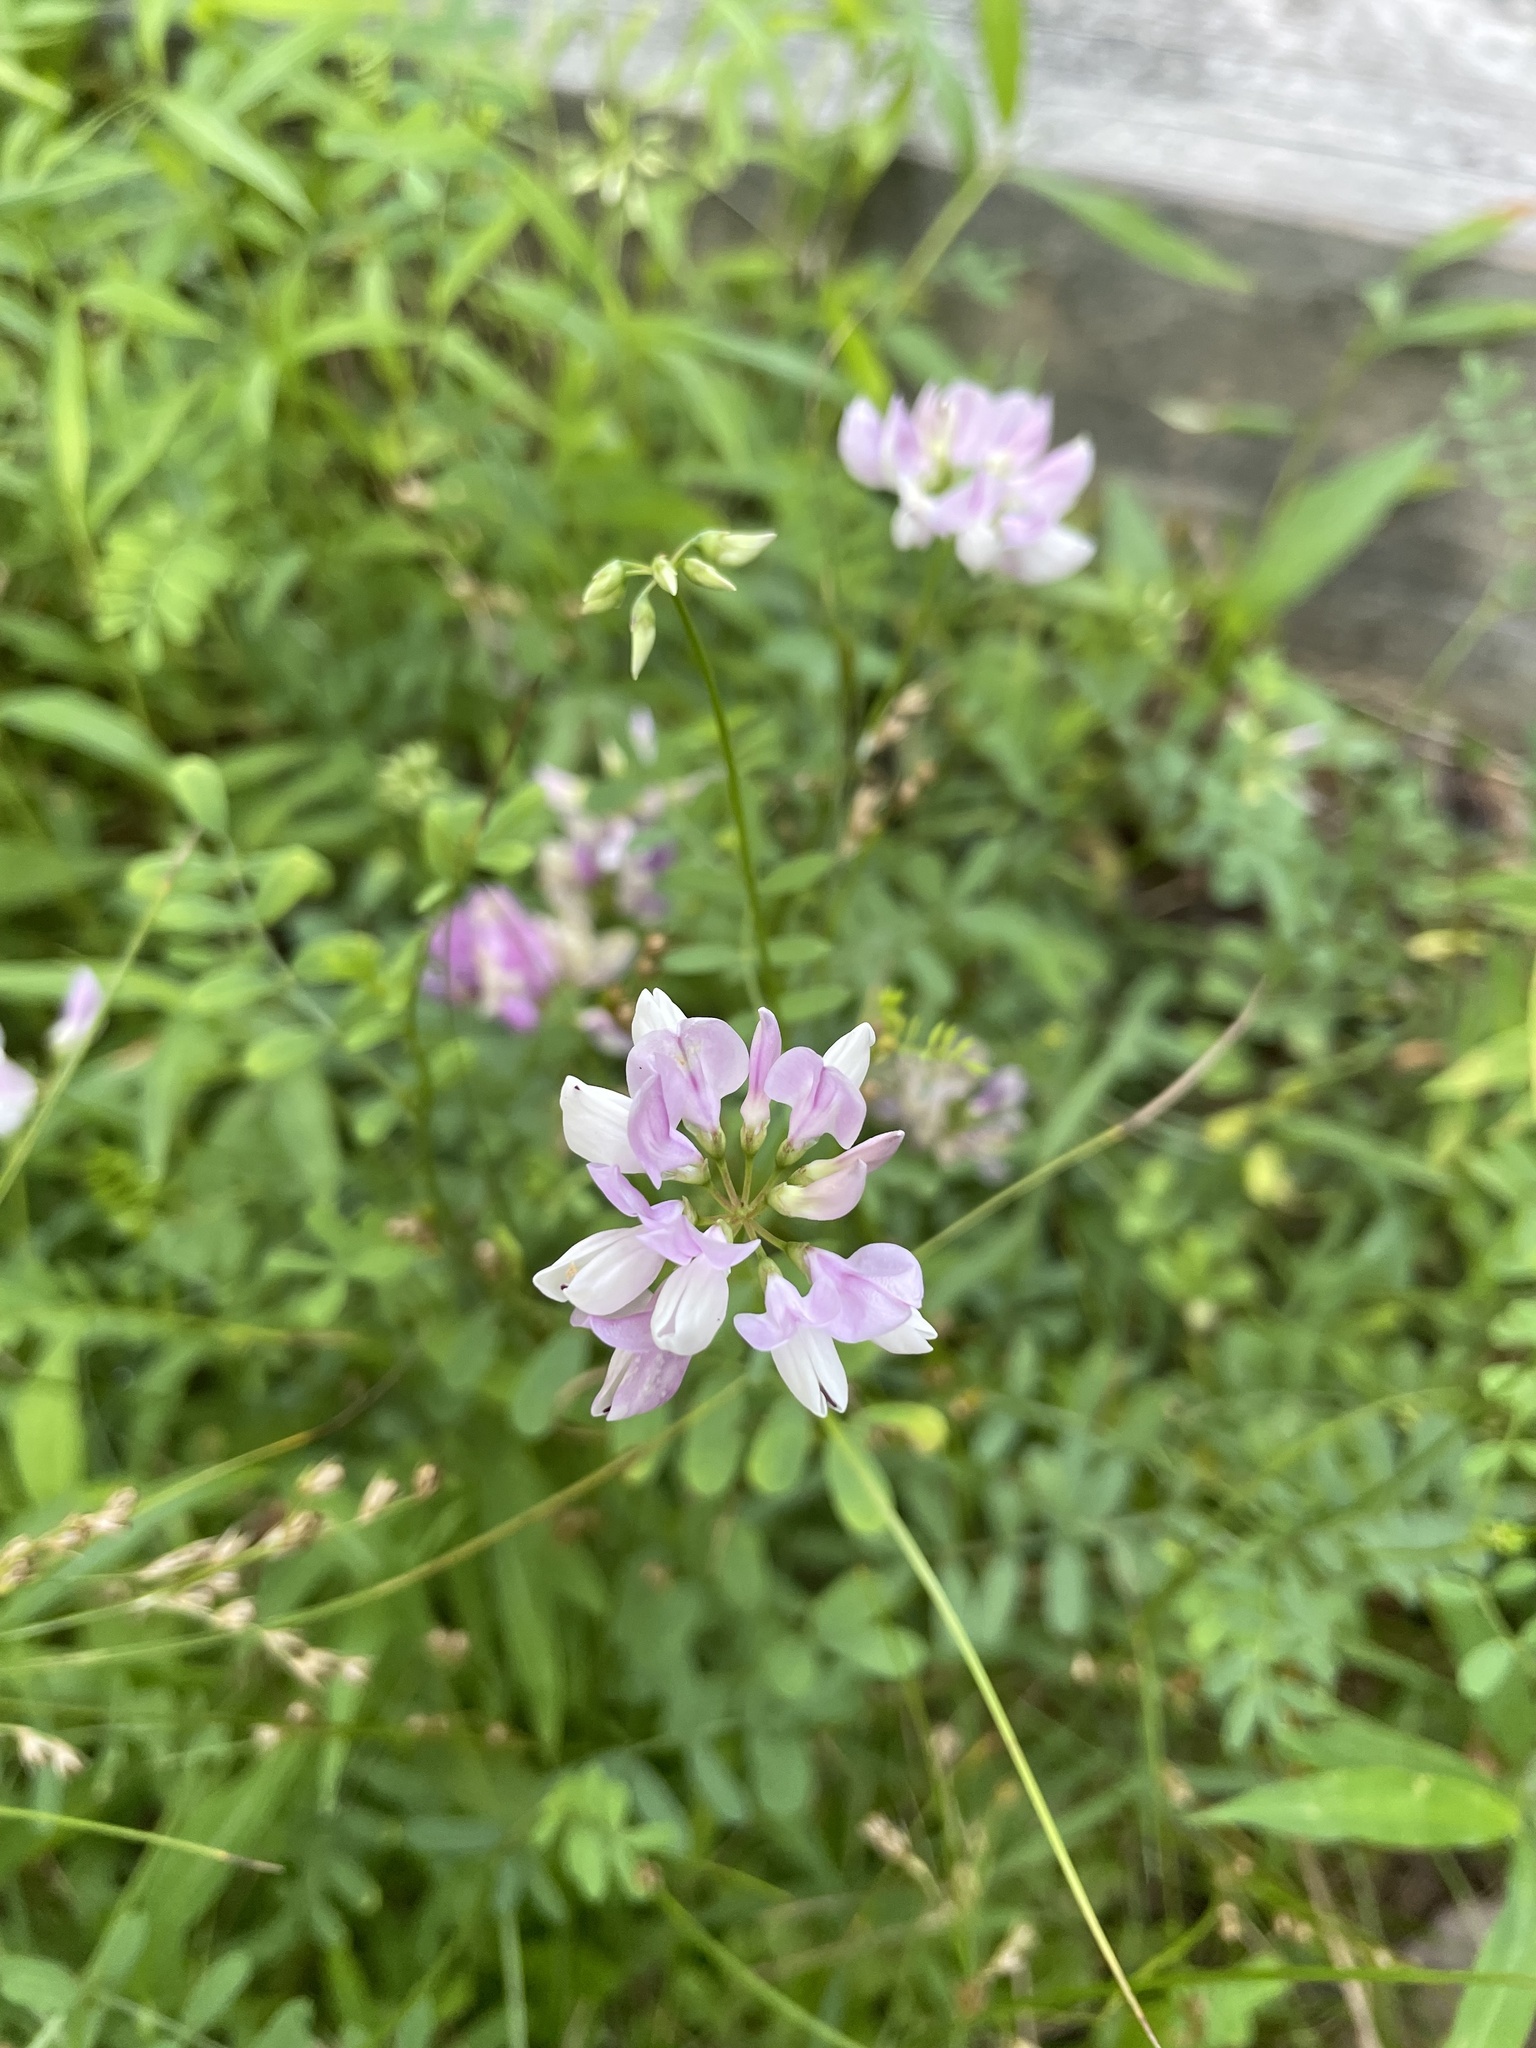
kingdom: Plantae
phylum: Tracheophyta
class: Magnoliopsida
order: Fabales
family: Fabaceae
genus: Coronilla
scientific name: Coronilla varia
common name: Crownvetch
